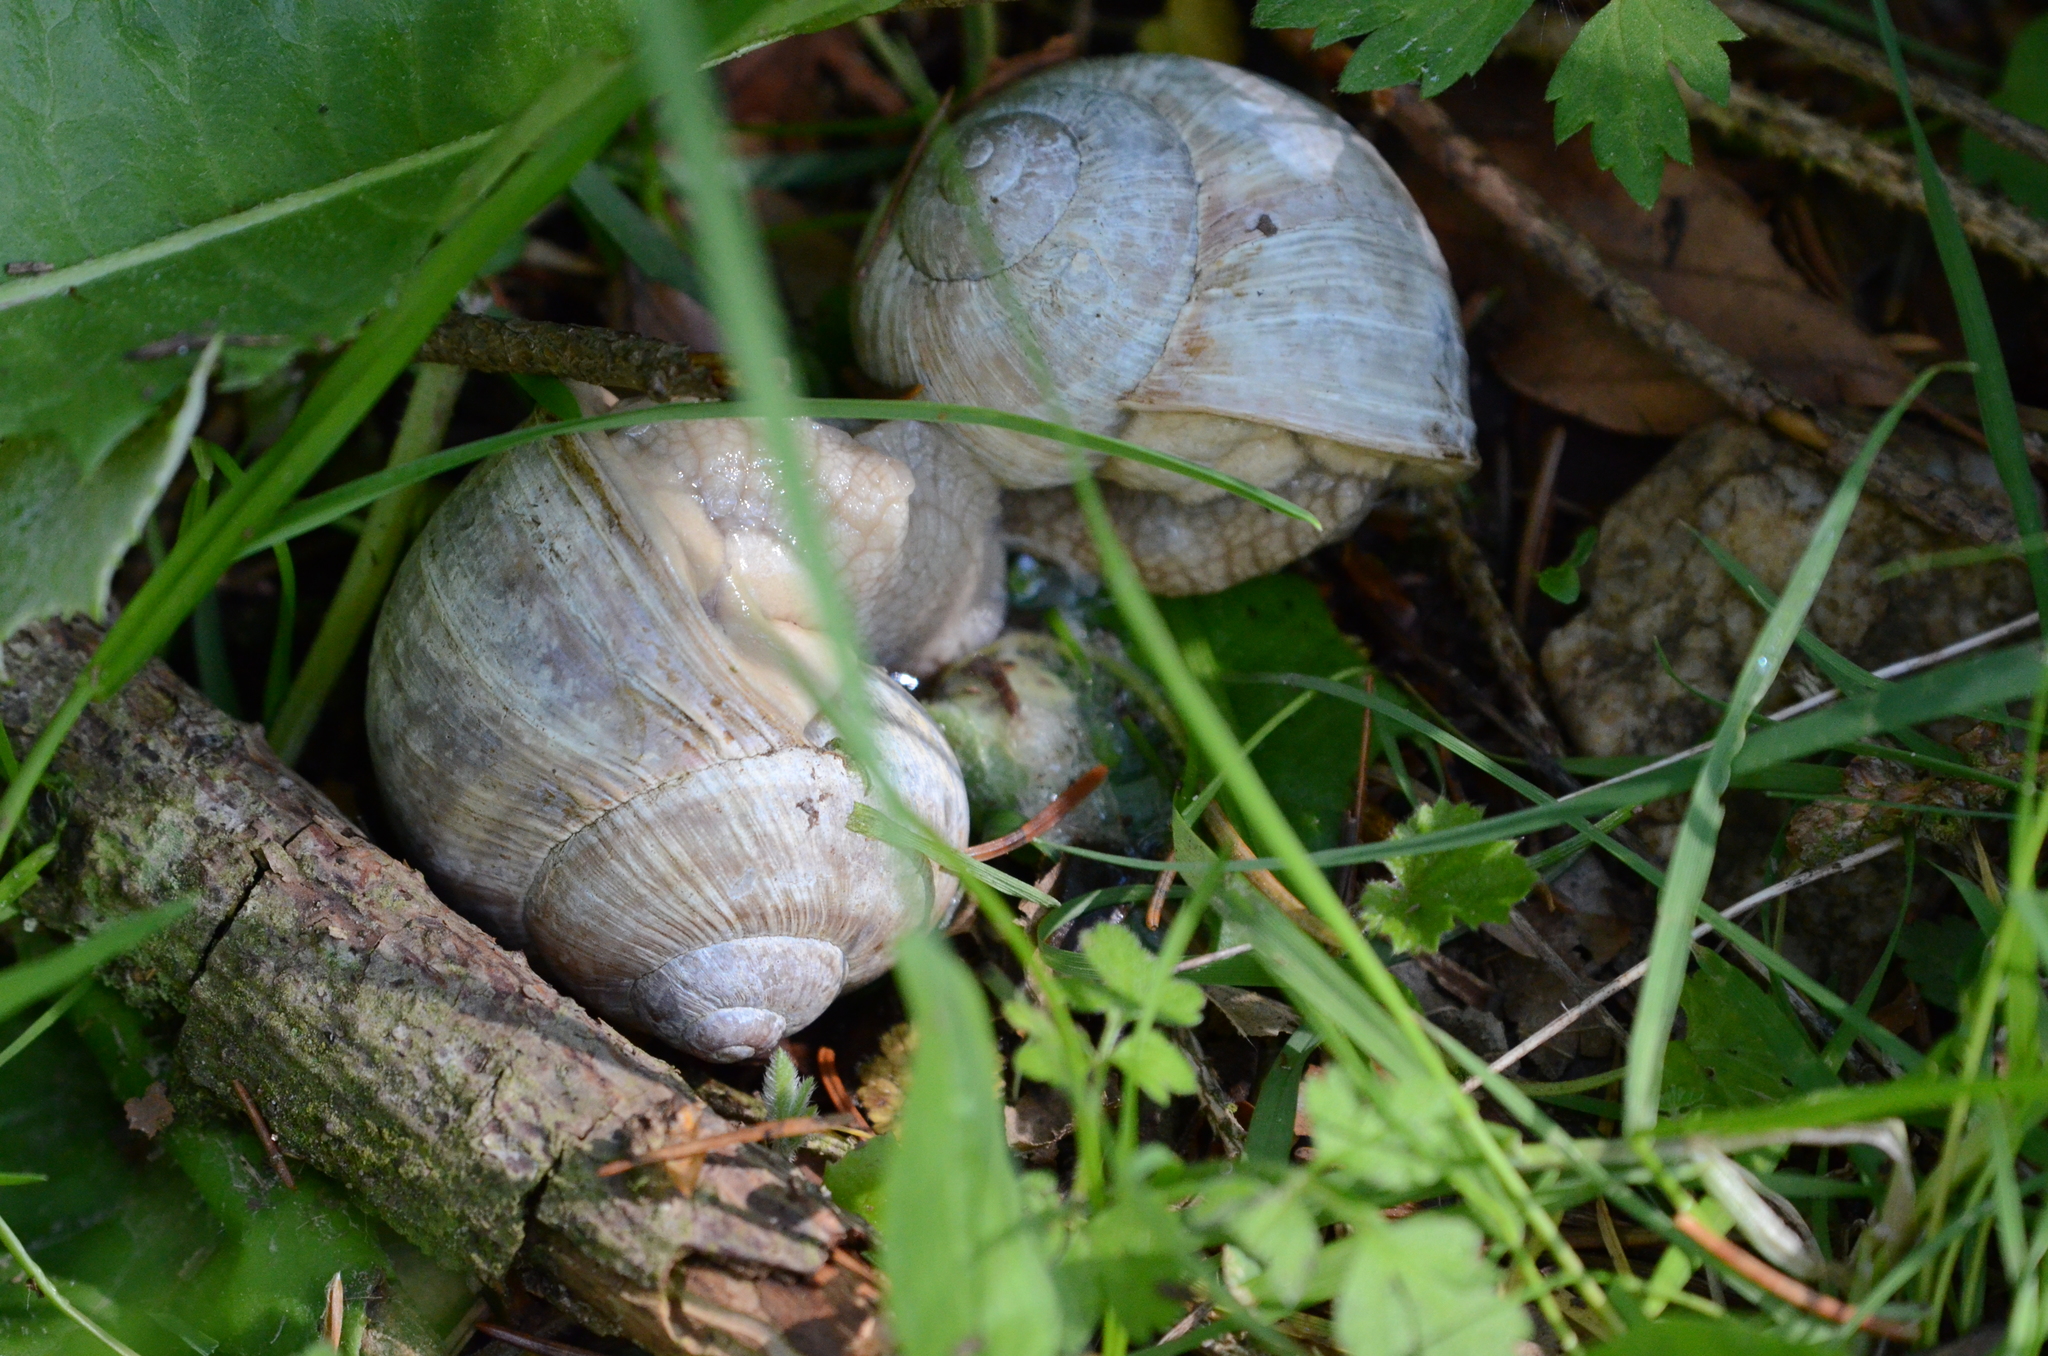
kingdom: Animalia
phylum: Mollusca
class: Gastropoda
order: Stylommatophora
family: Helicidae
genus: Helix
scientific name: Helix pomatia
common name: Roman snail
